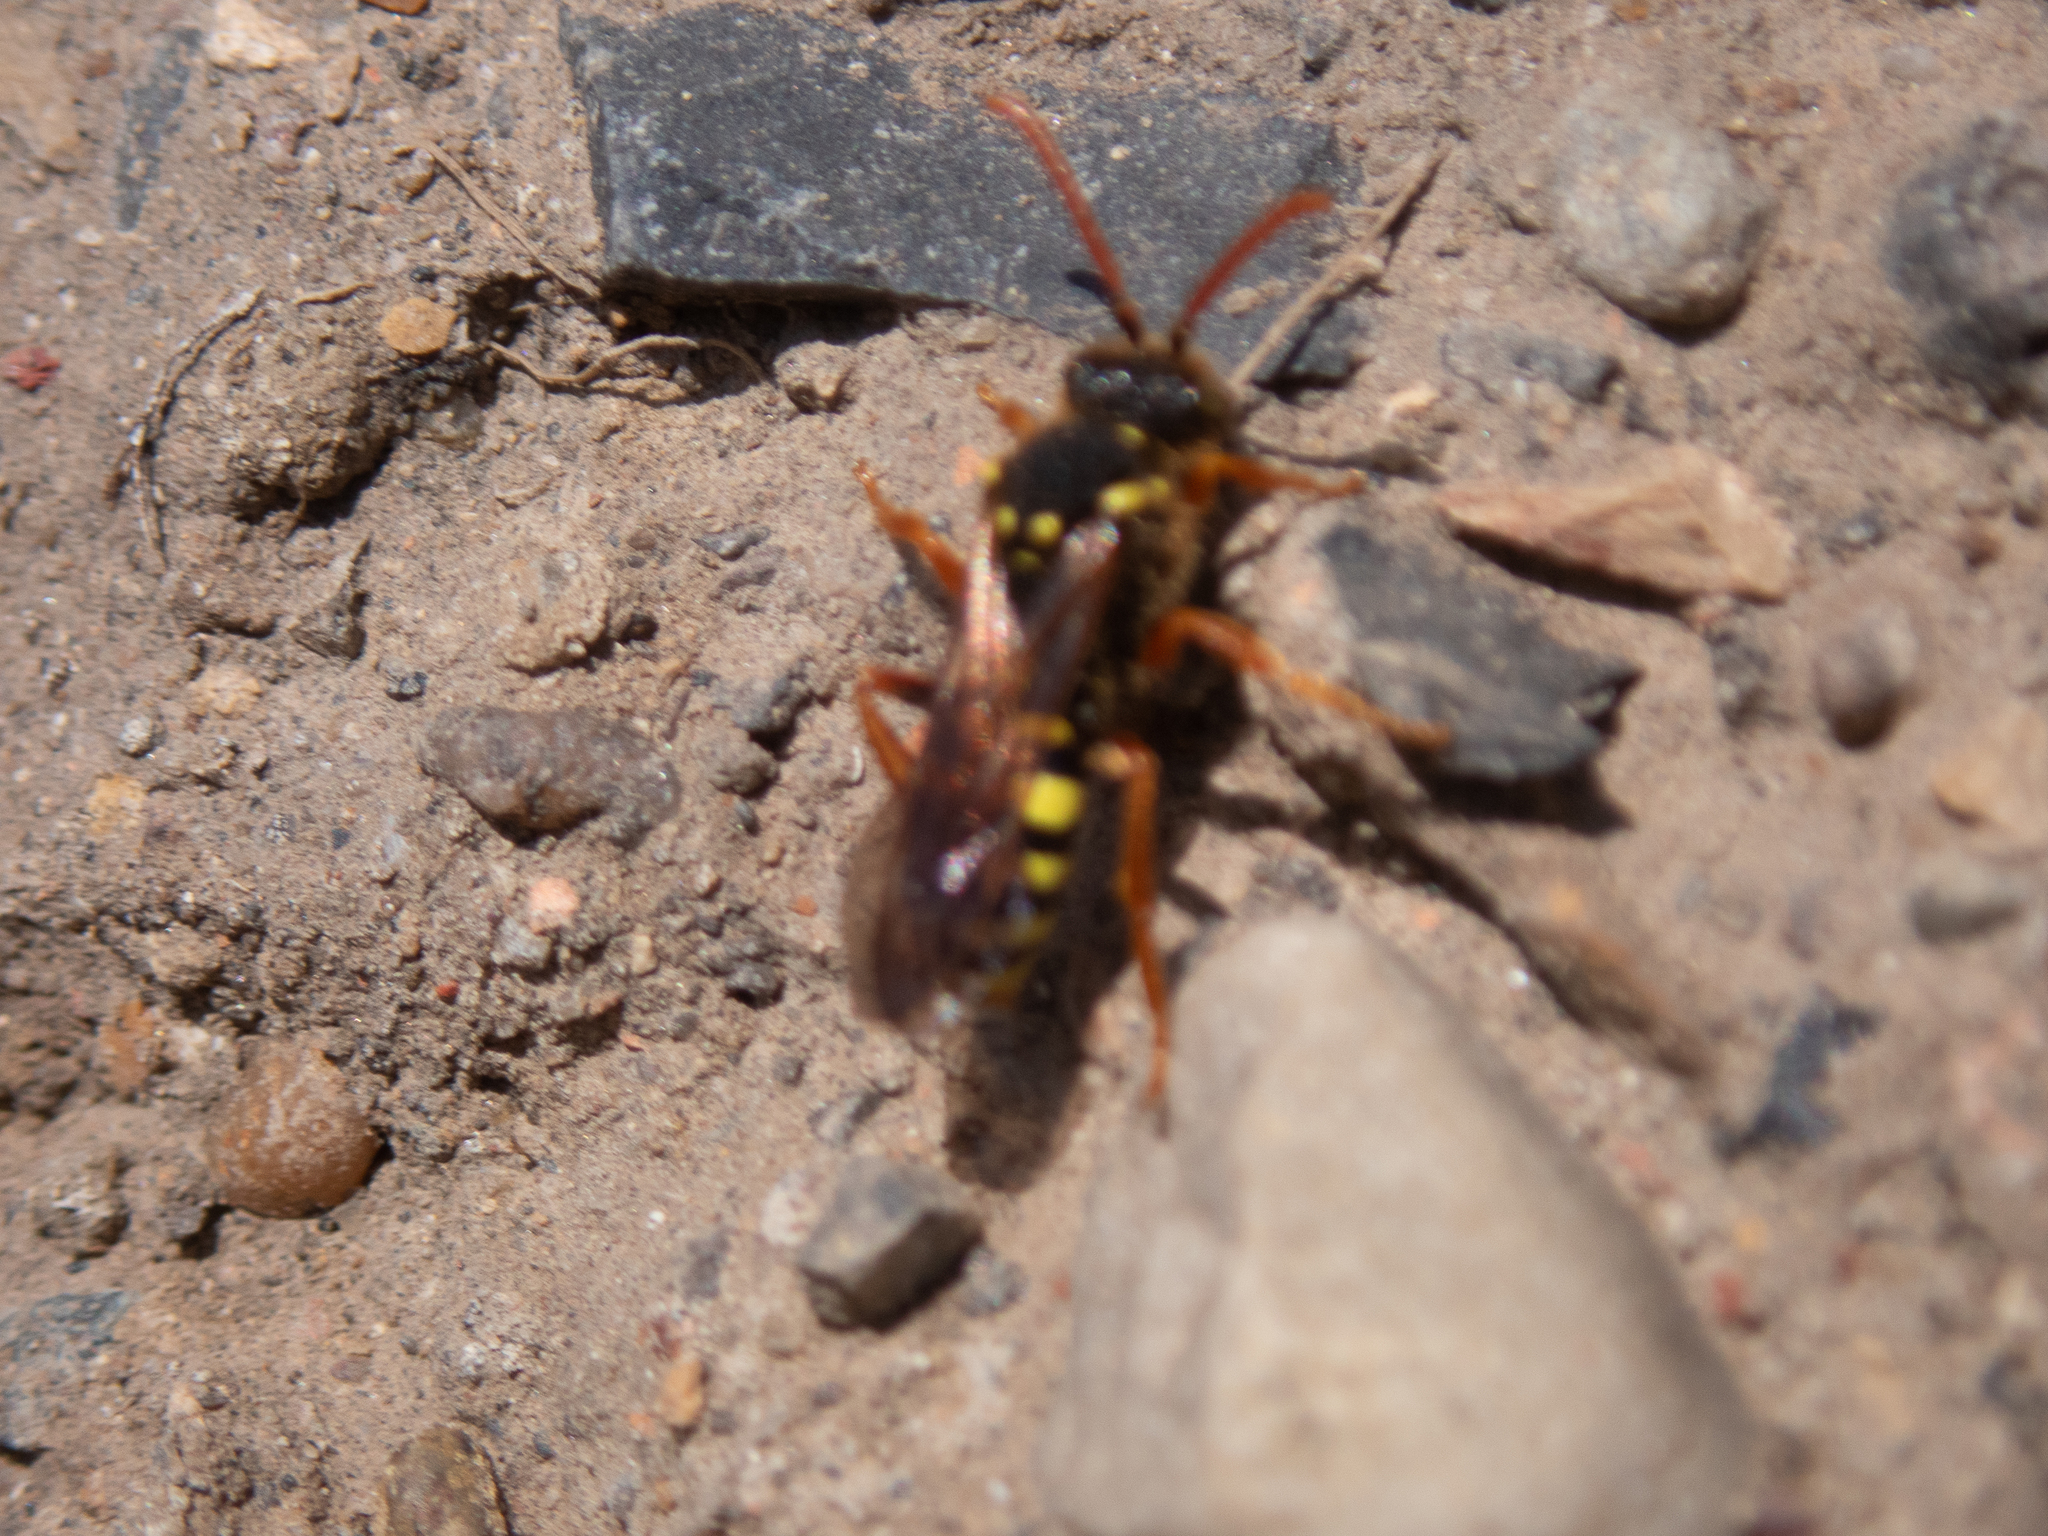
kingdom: Animalia
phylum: Arthropoda
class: Insecta
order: Hymenoptera
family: Apidae
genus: Nomada
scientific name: Nomada goodeniana
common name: Gooden's nomad bee
